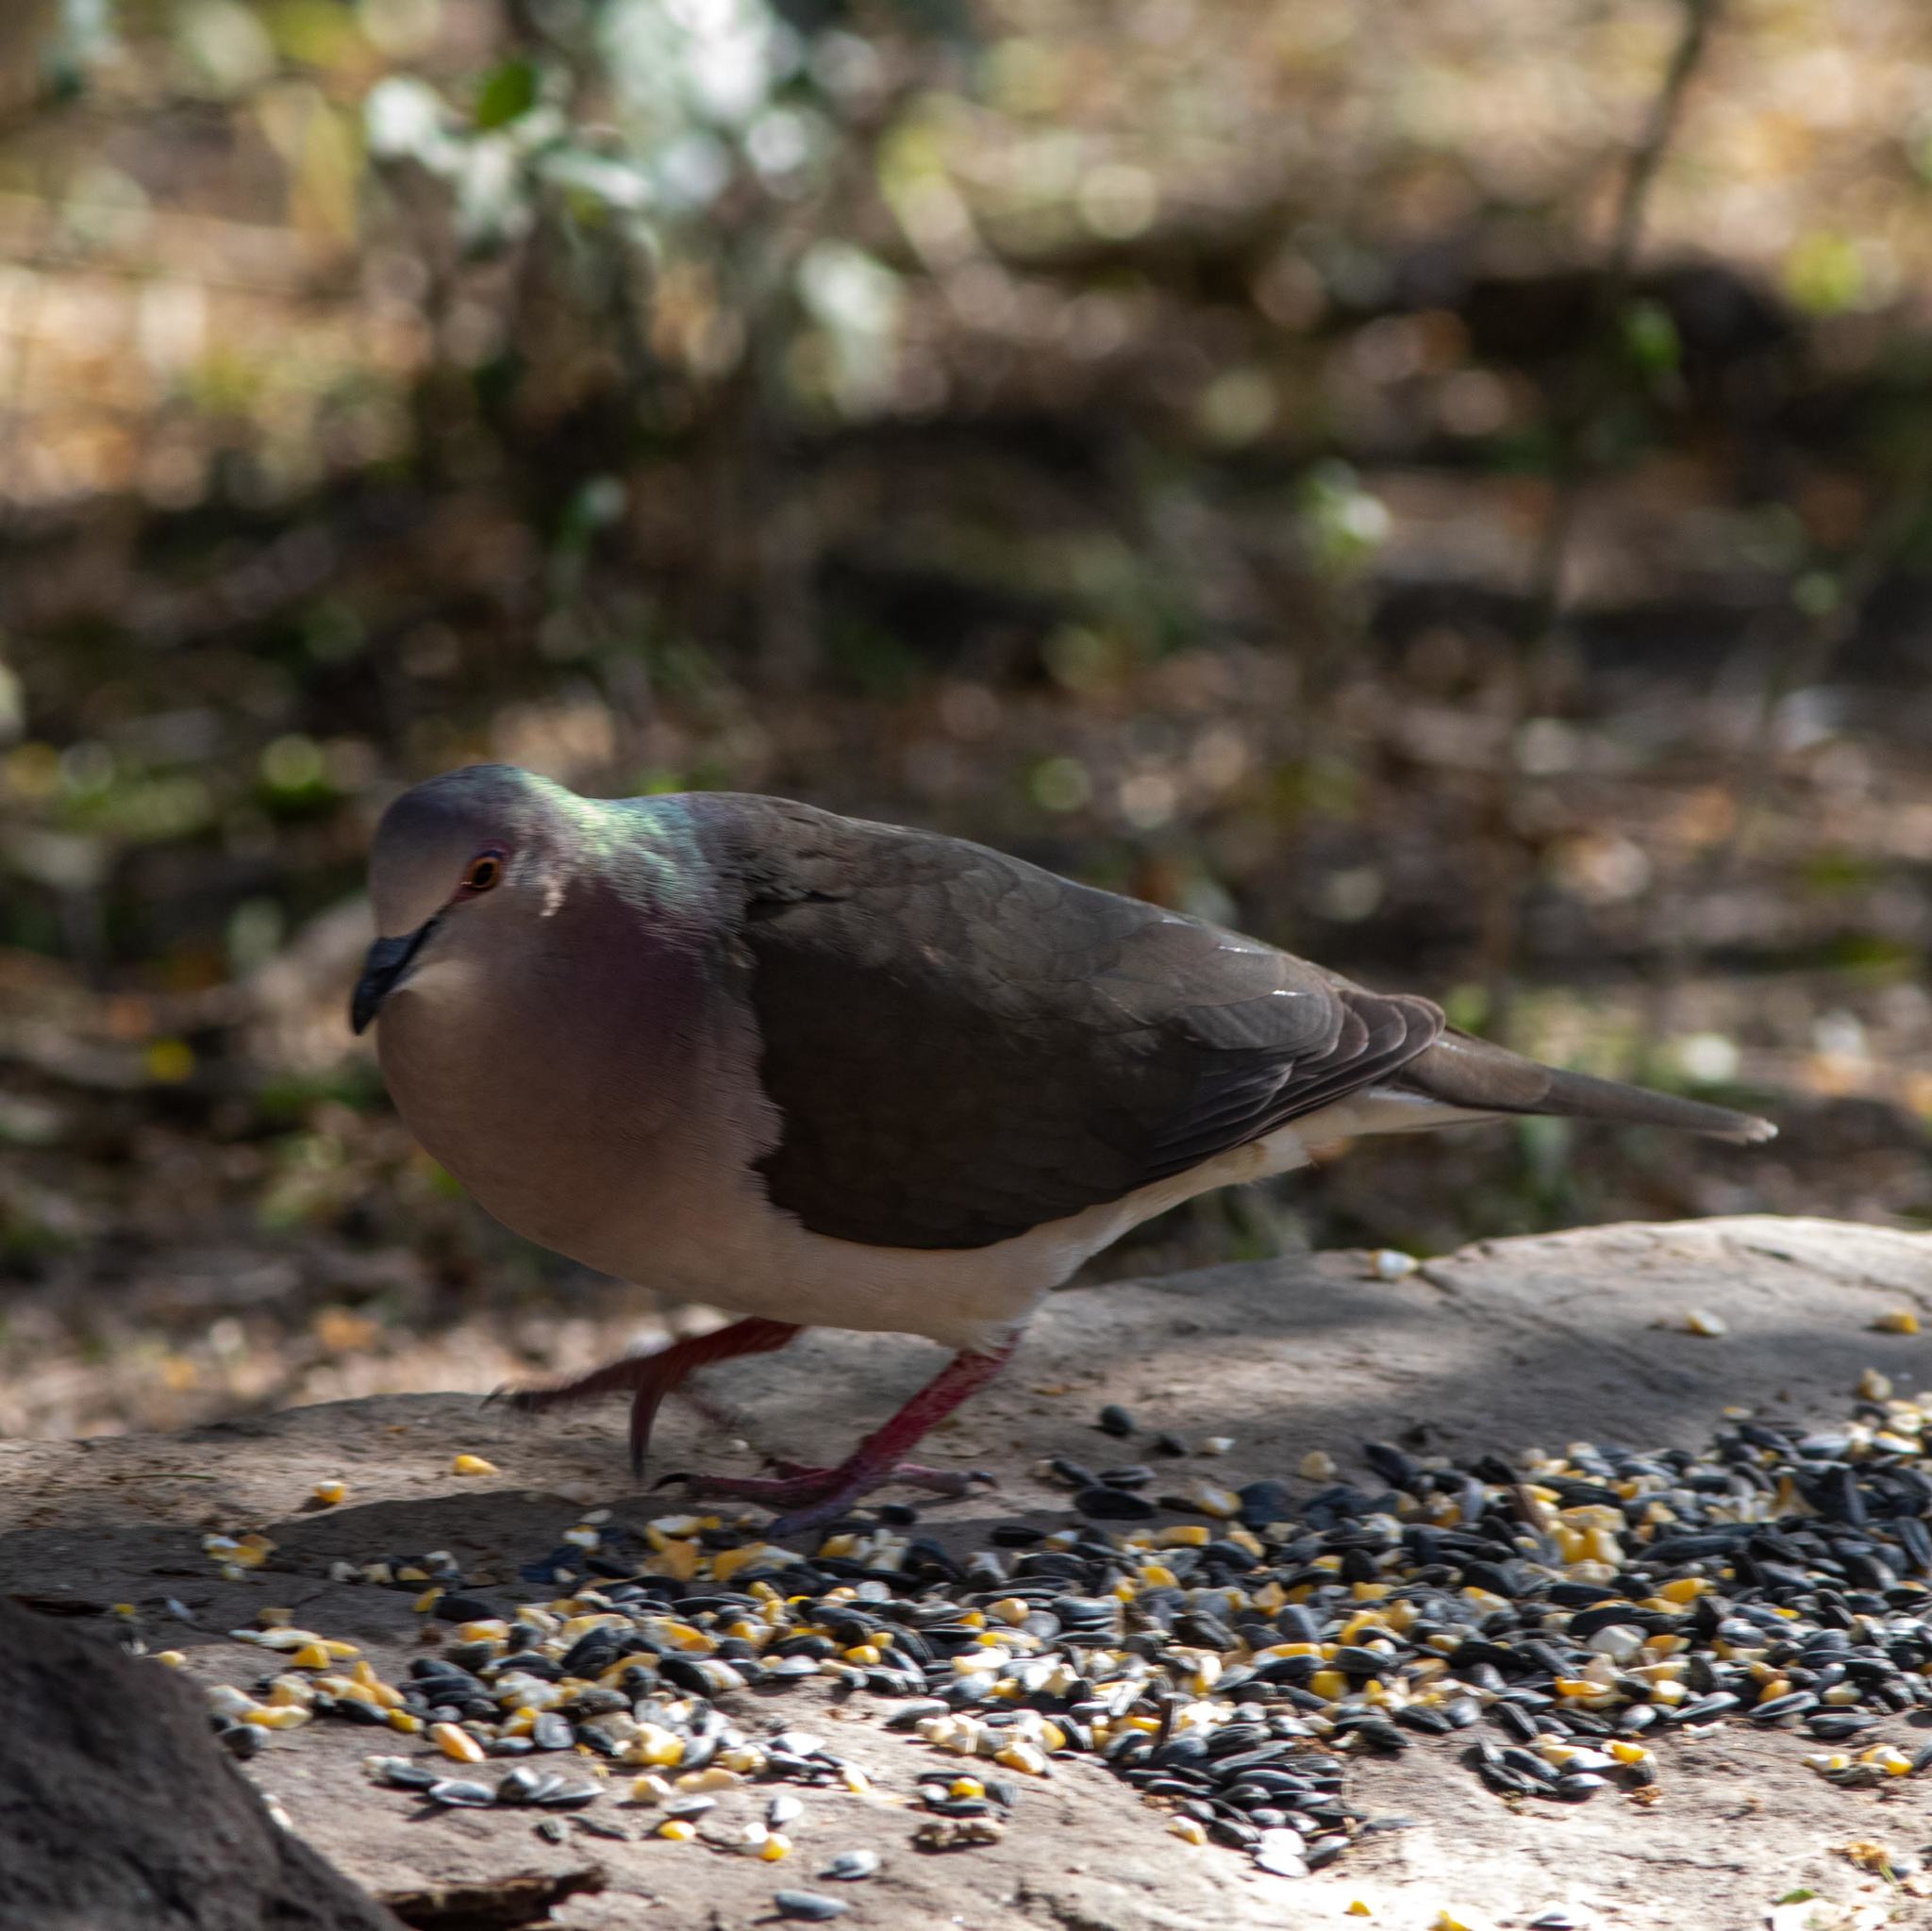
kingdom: Animalia
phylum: Chordata
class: Aves
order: Columbiformes
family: Columbidae
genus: Leptotila
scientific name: Leptotila verreauxi
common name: White-tipped dove
